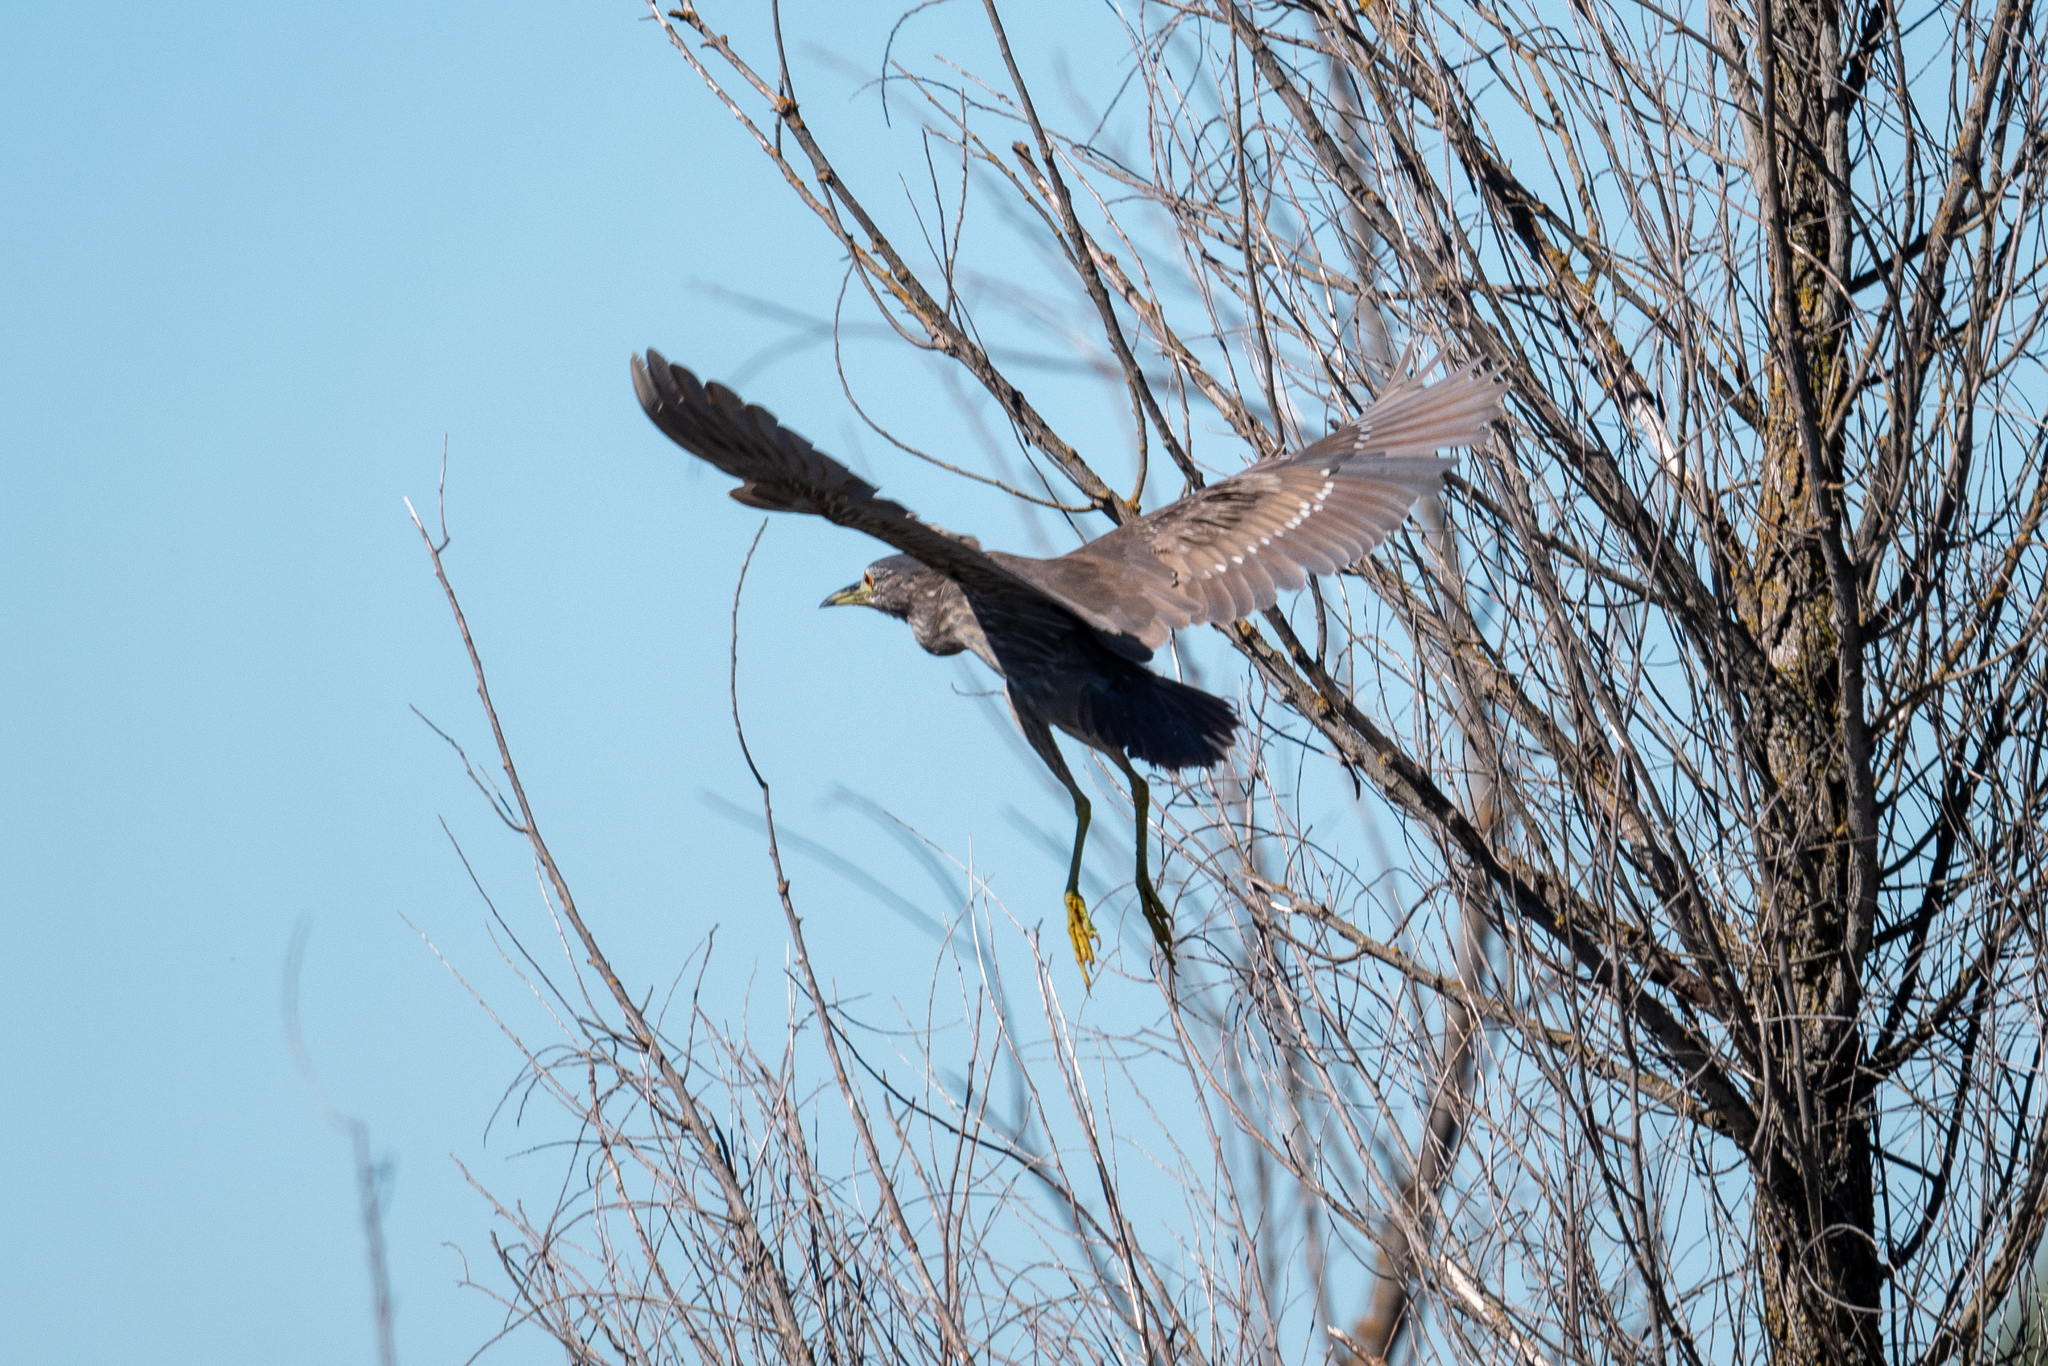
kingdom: Animalia
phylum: Chordata
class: Aves
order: Pelecaniformes
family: Ardeidae
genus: Nycticorax
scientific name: Nycticorax nycticorax
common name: Black-crowned night heron
